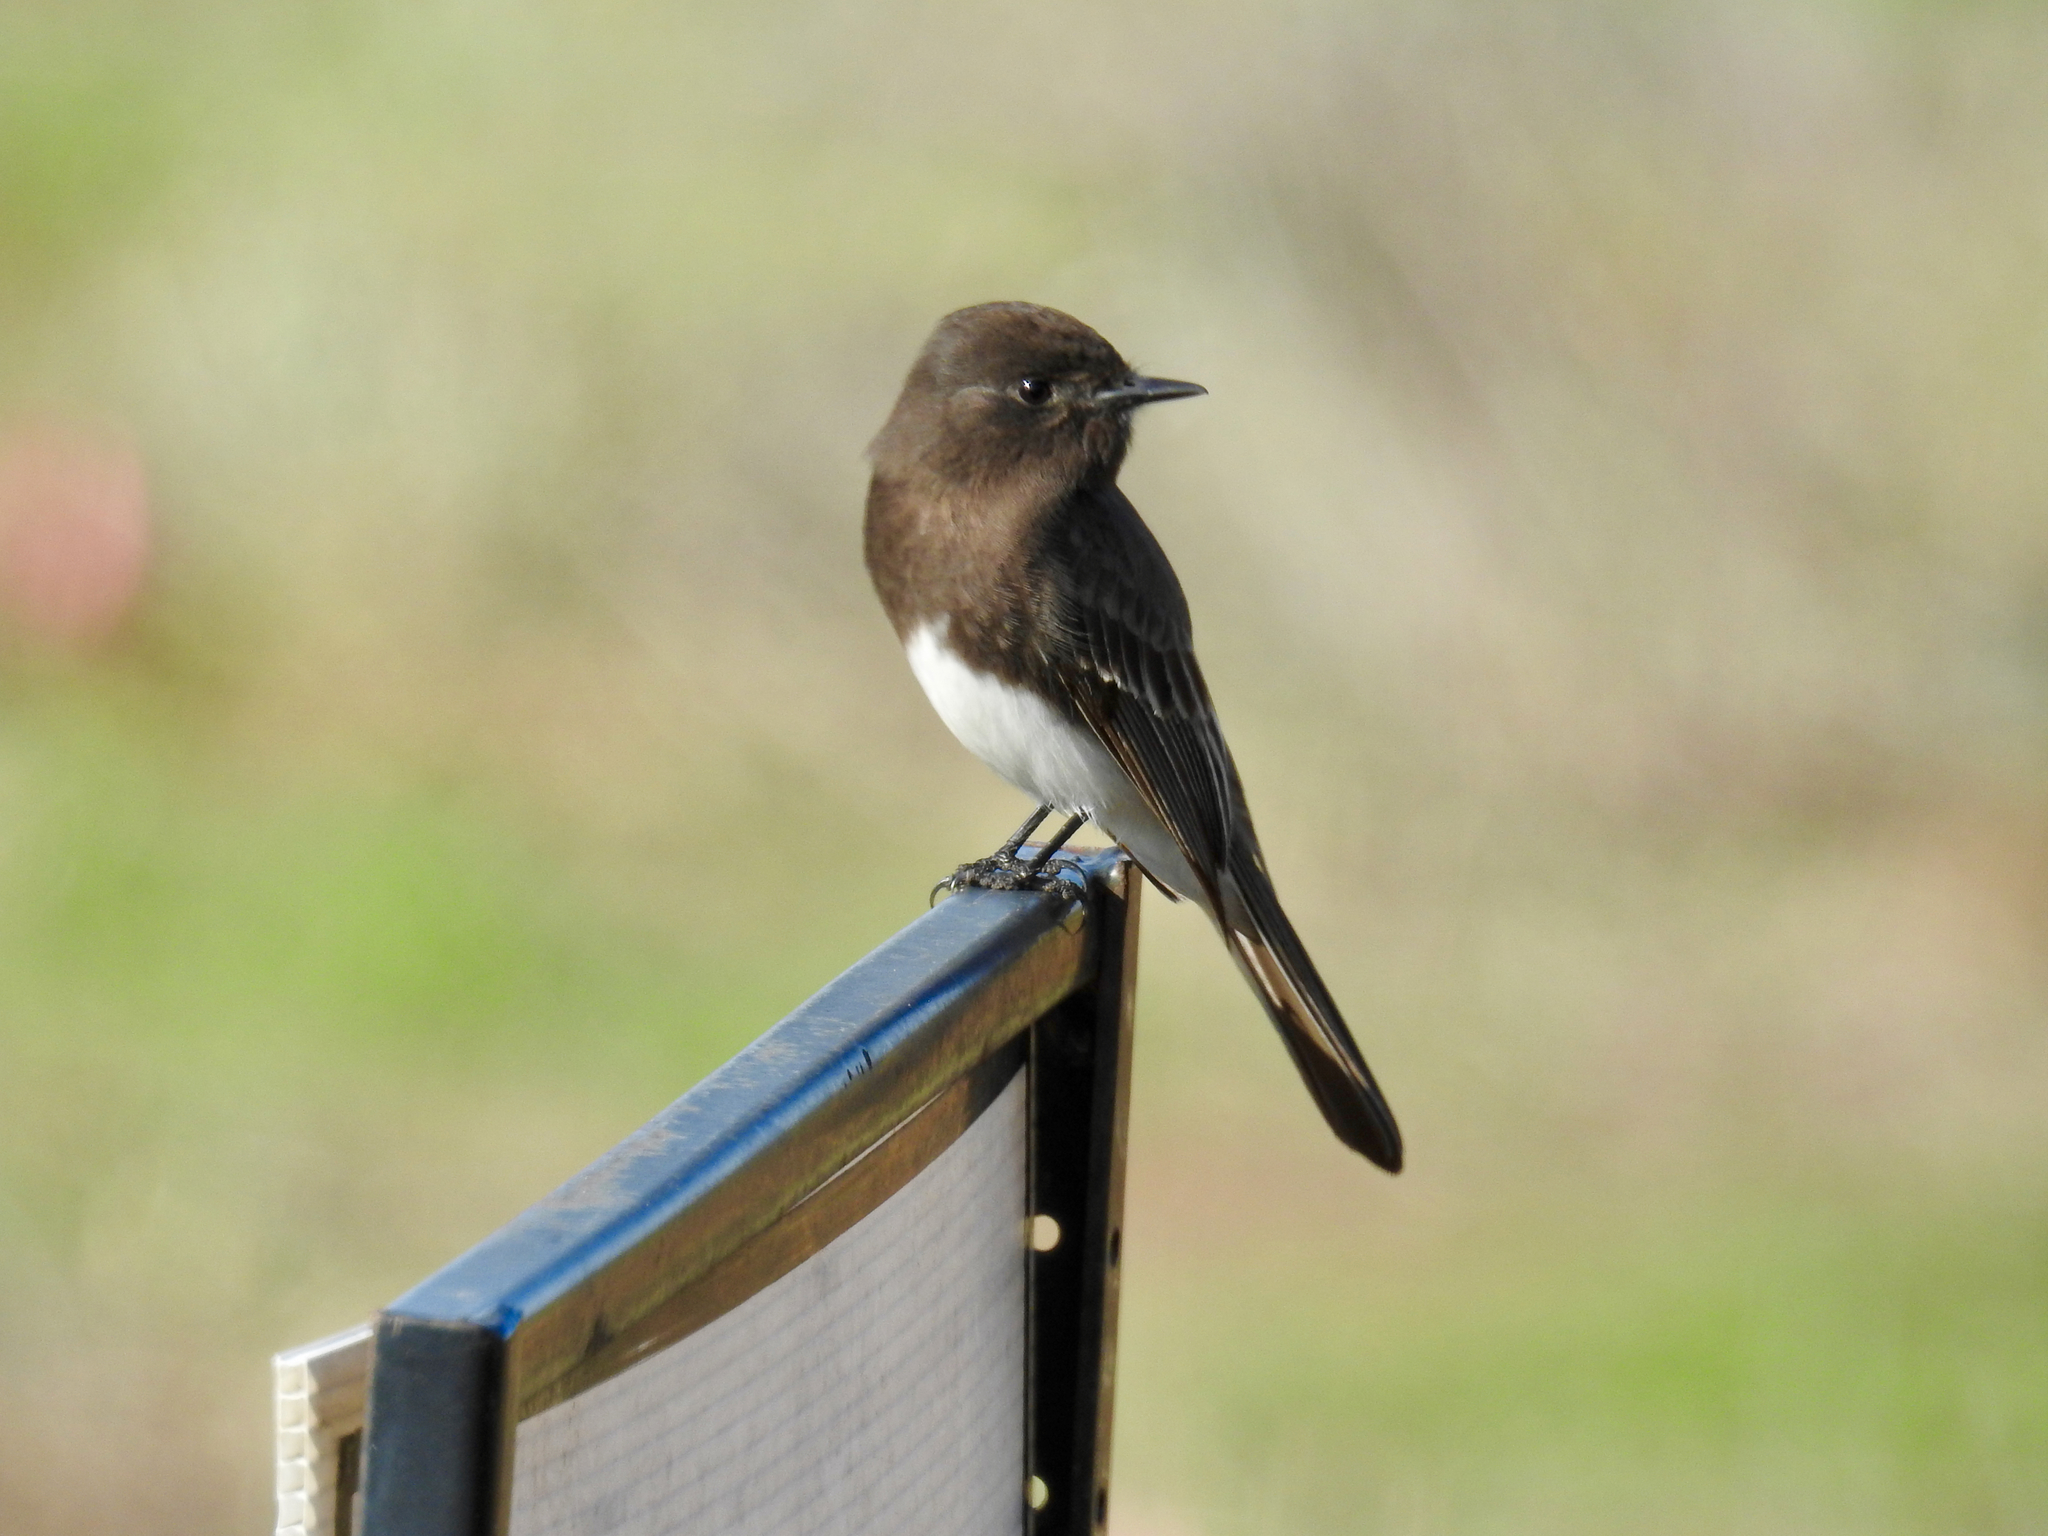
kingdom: Animalia
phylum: Chordata
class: Aves
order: Passeriformes
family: Tyrannidae
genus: Sayornis
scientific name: Sayornis nigricans
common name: Black phoebe
